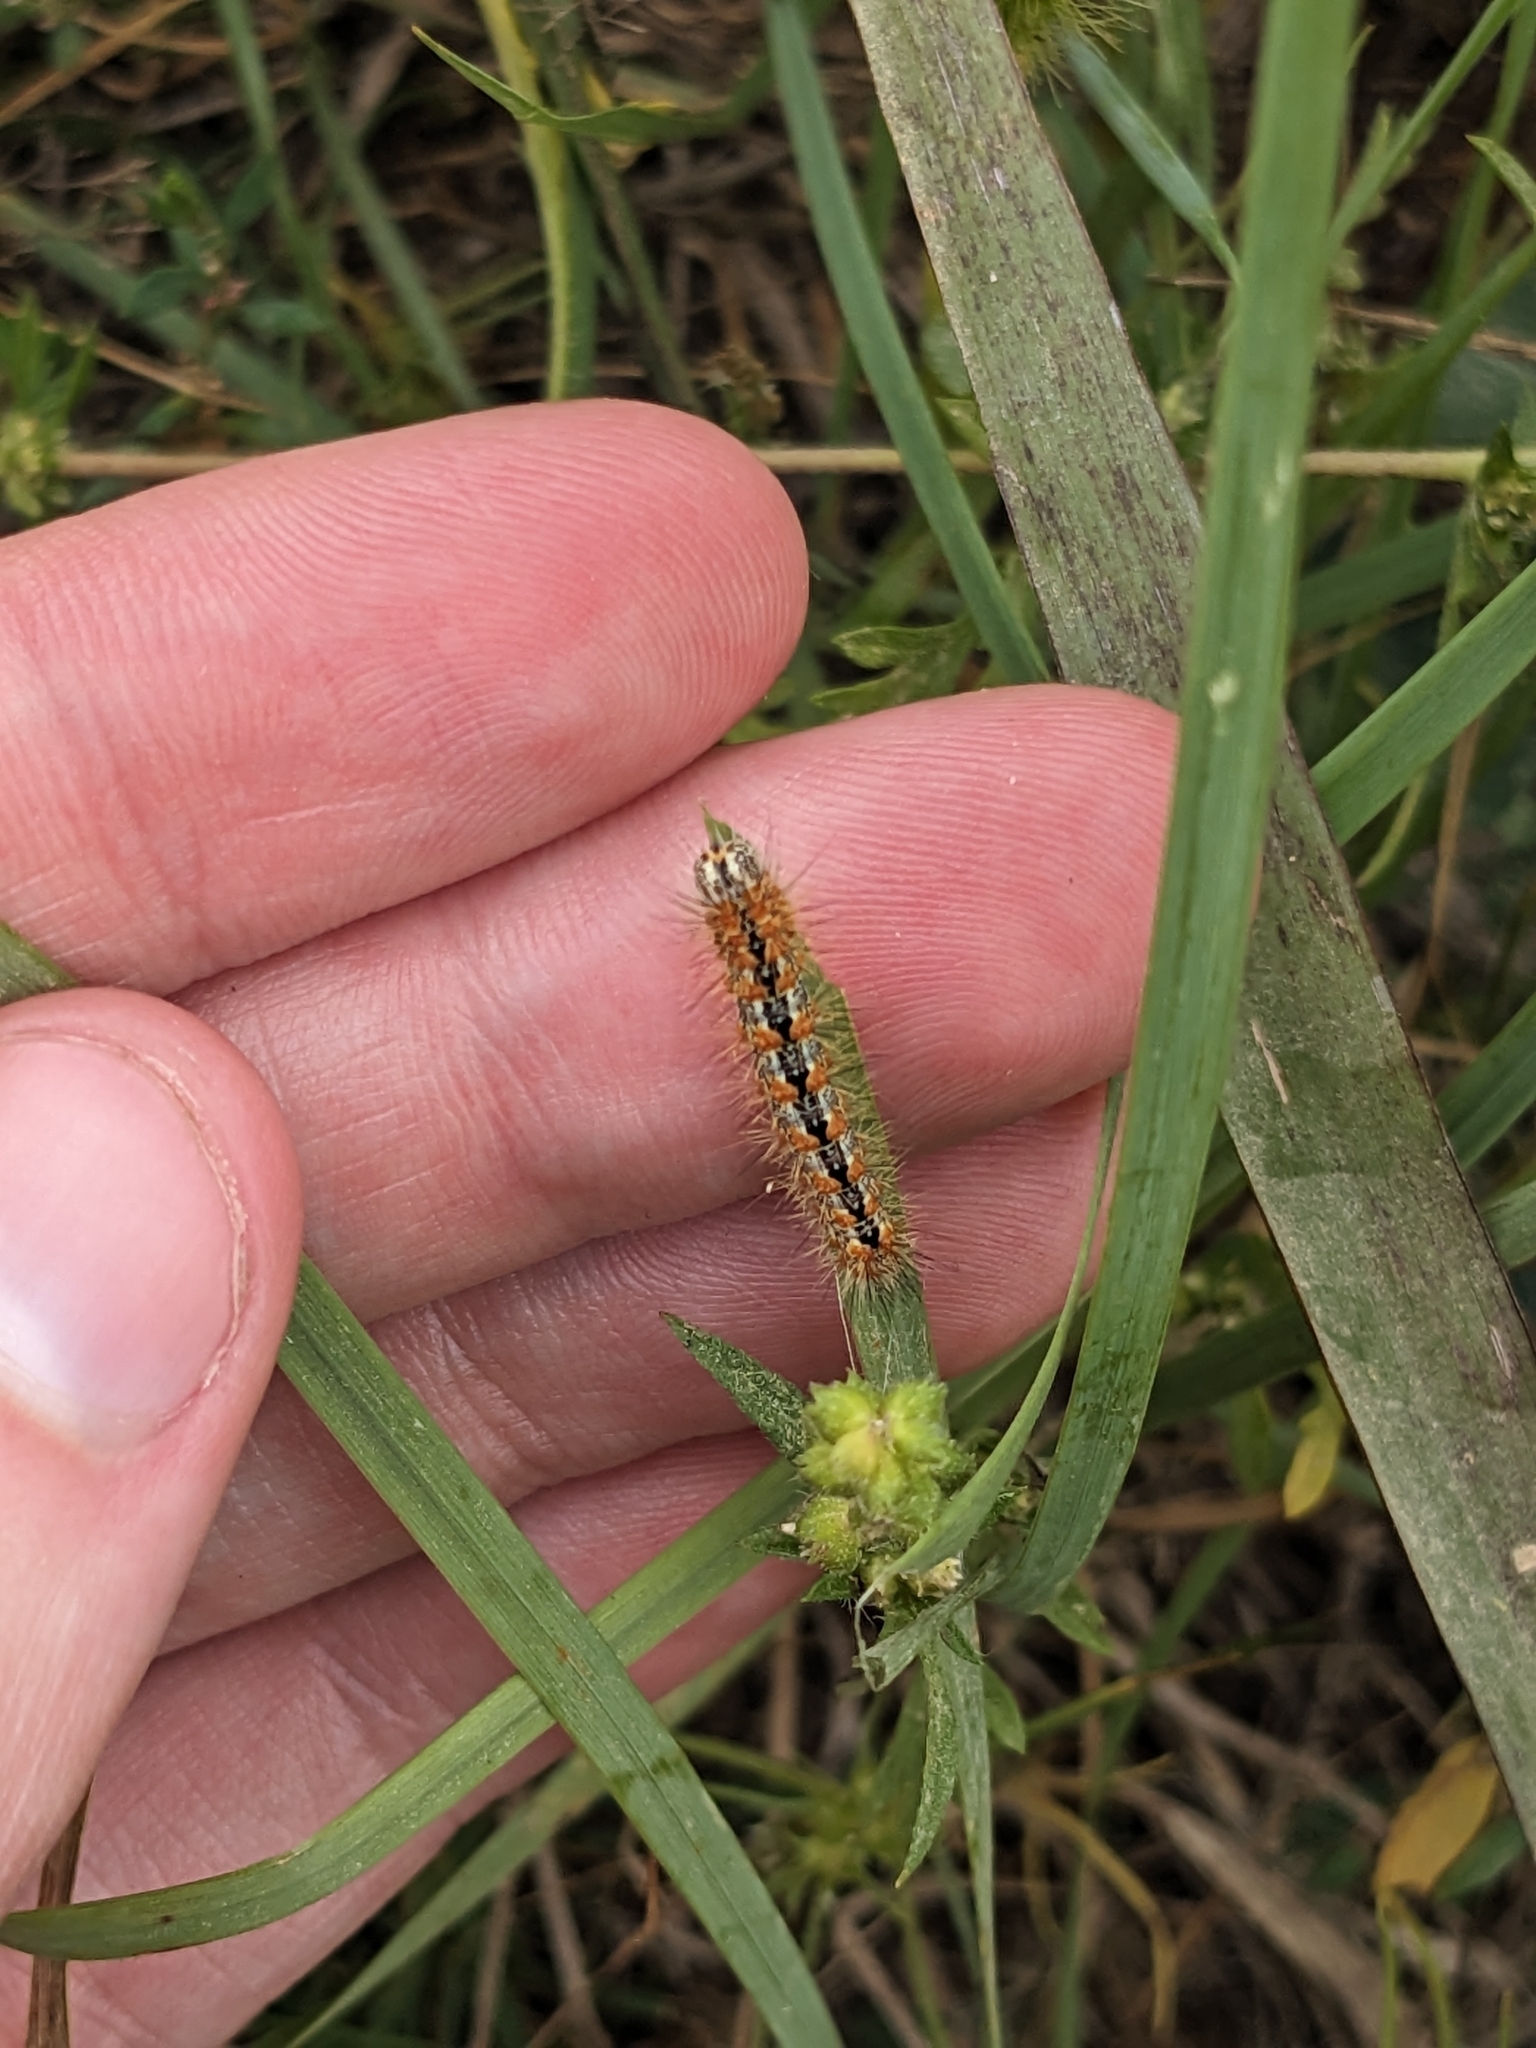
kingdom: Animalia
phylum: Arthropoda
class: Insecta
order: Lepidoptera
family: Noctuidae
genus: Acronicta
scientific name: Acronicta insularis
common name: Henry's marsh moth
